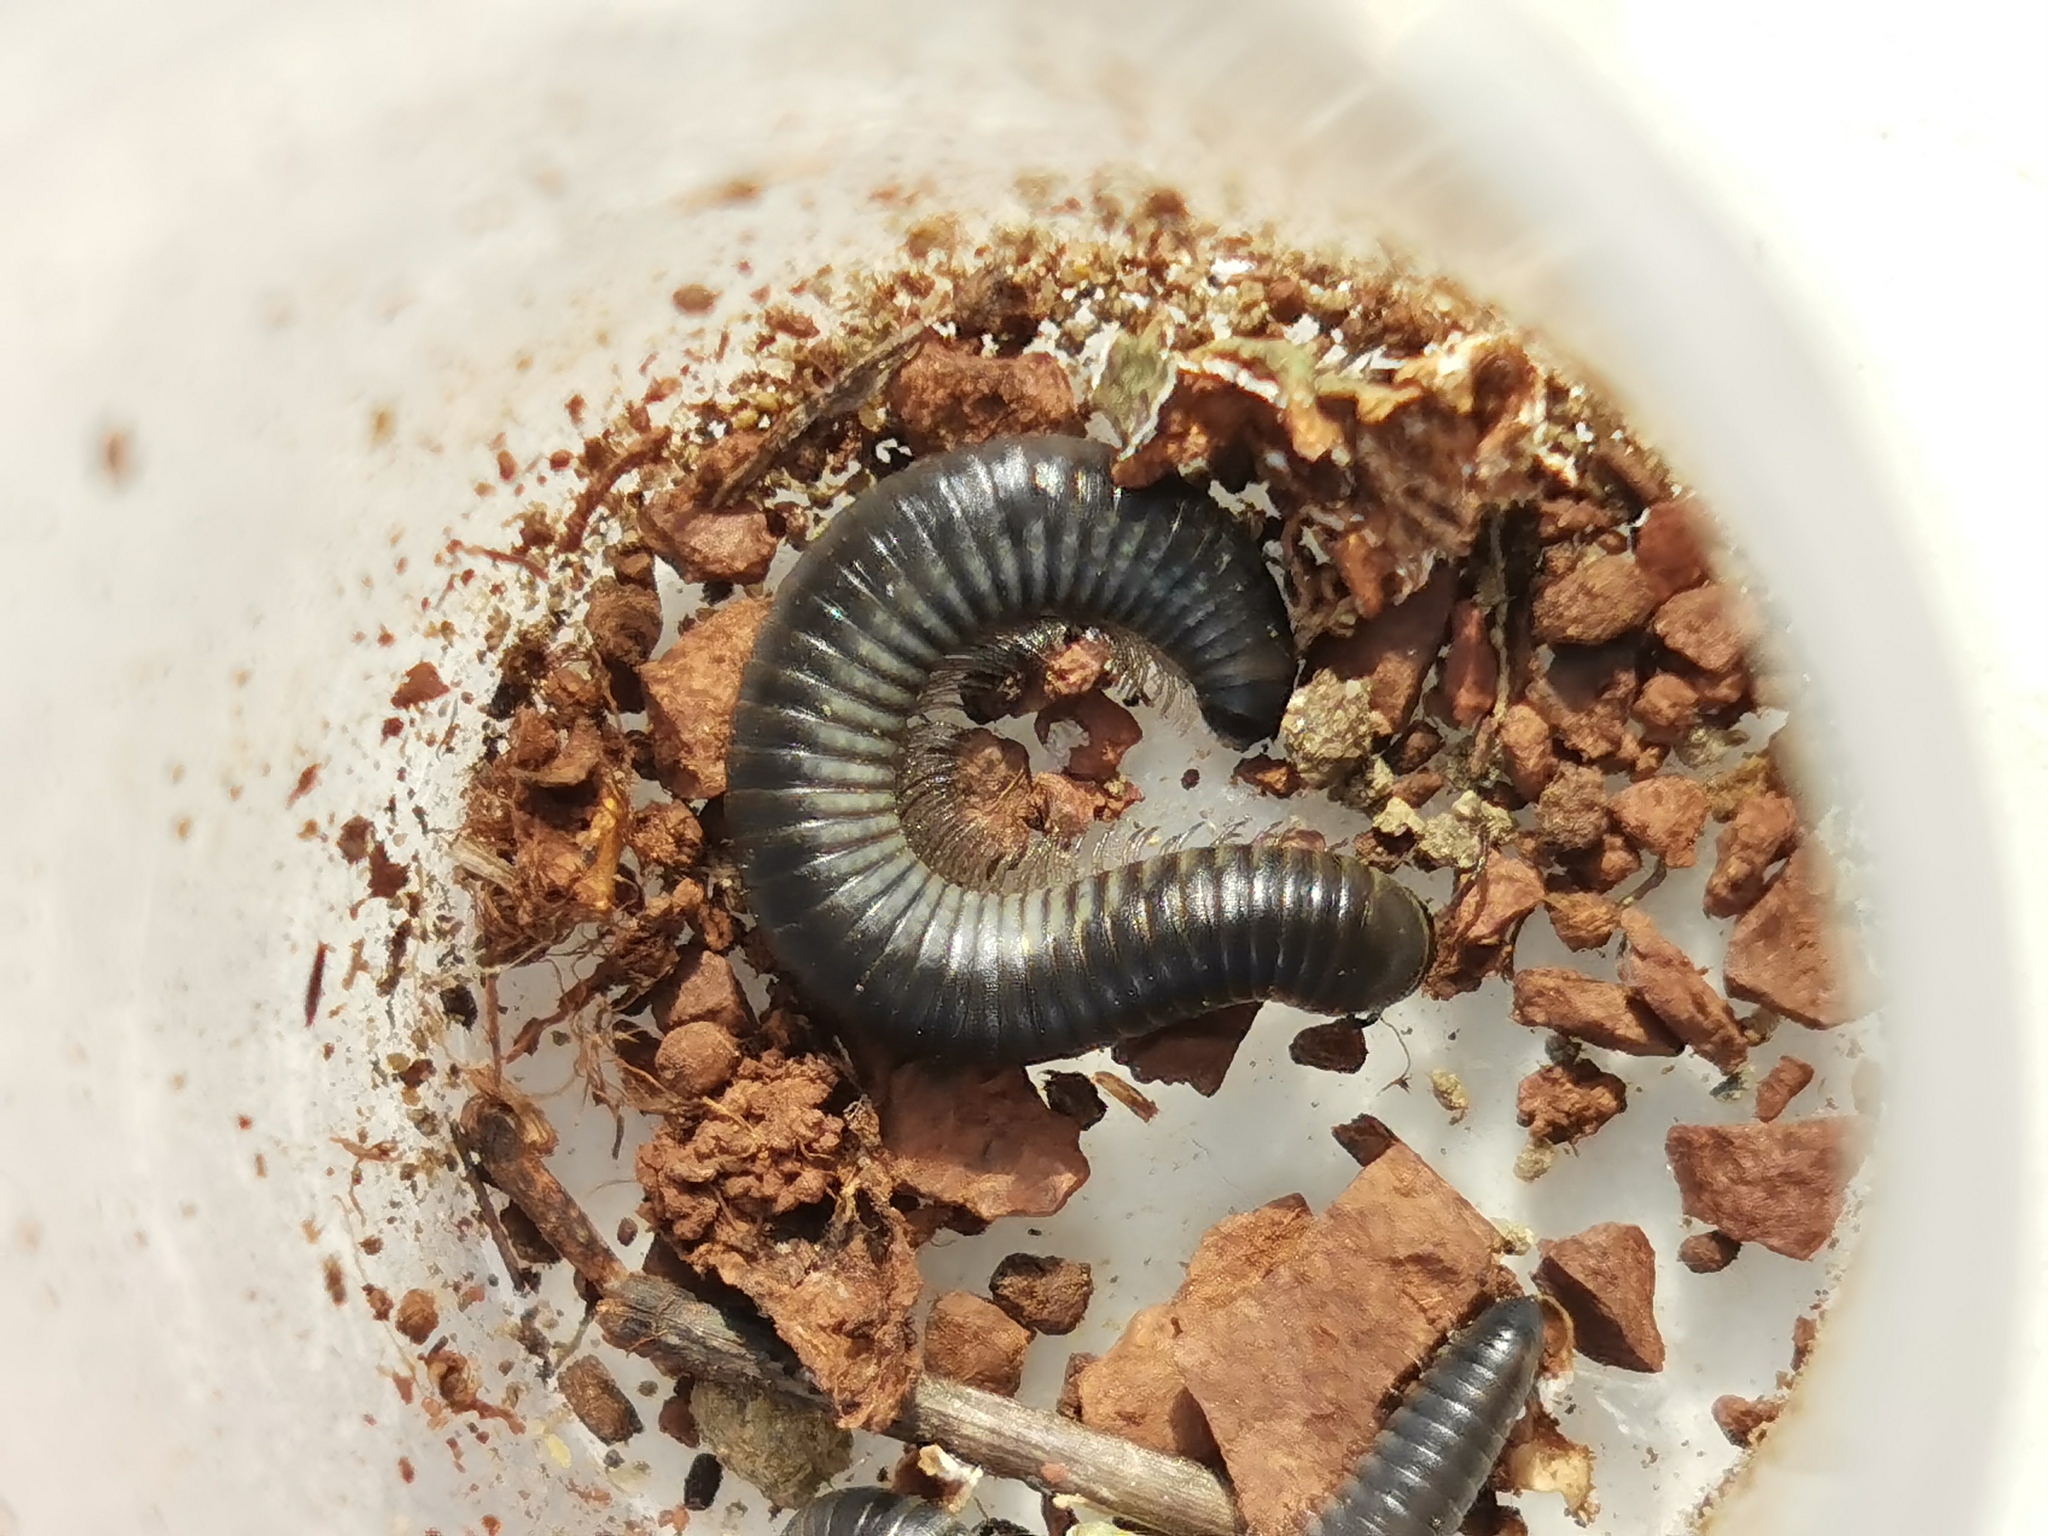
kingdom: Animalia
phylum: Arthropoda
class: Diplopoda
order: Julida
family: Julidae
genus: Ommatoiulus
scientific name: Ommatoiulus rutilans
